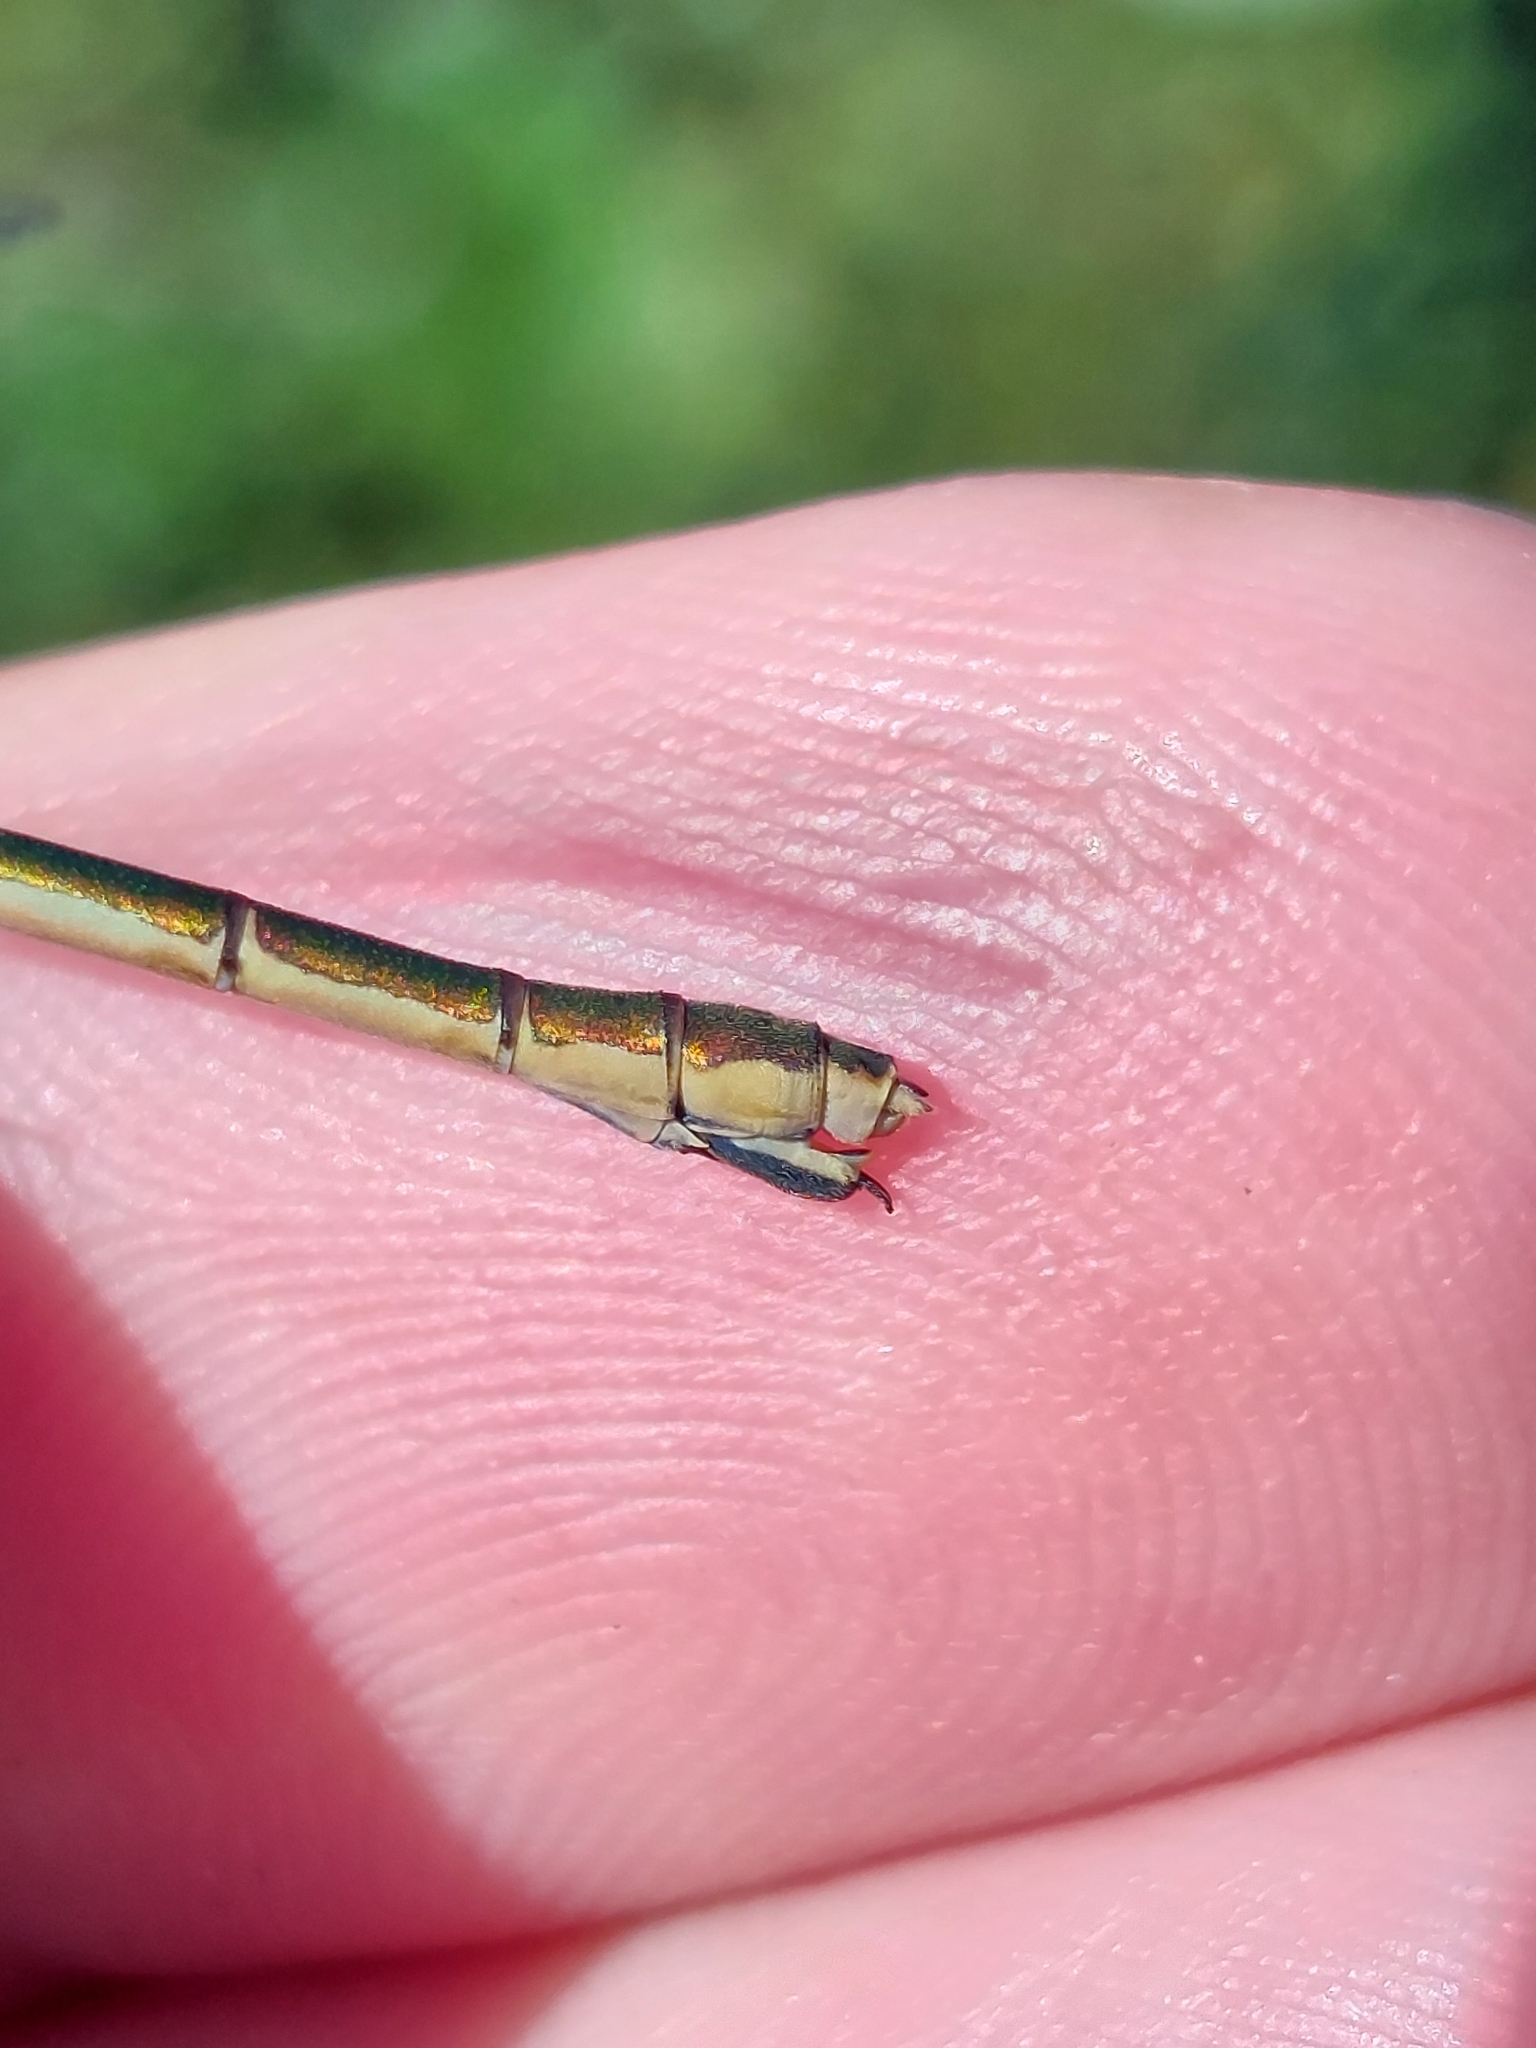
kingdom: Animalia
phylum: Arthropoda
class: Insecta
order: Odonata
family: Lestidae
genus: Lestes
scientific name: Lestes sponsa
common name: Common spreadwing
